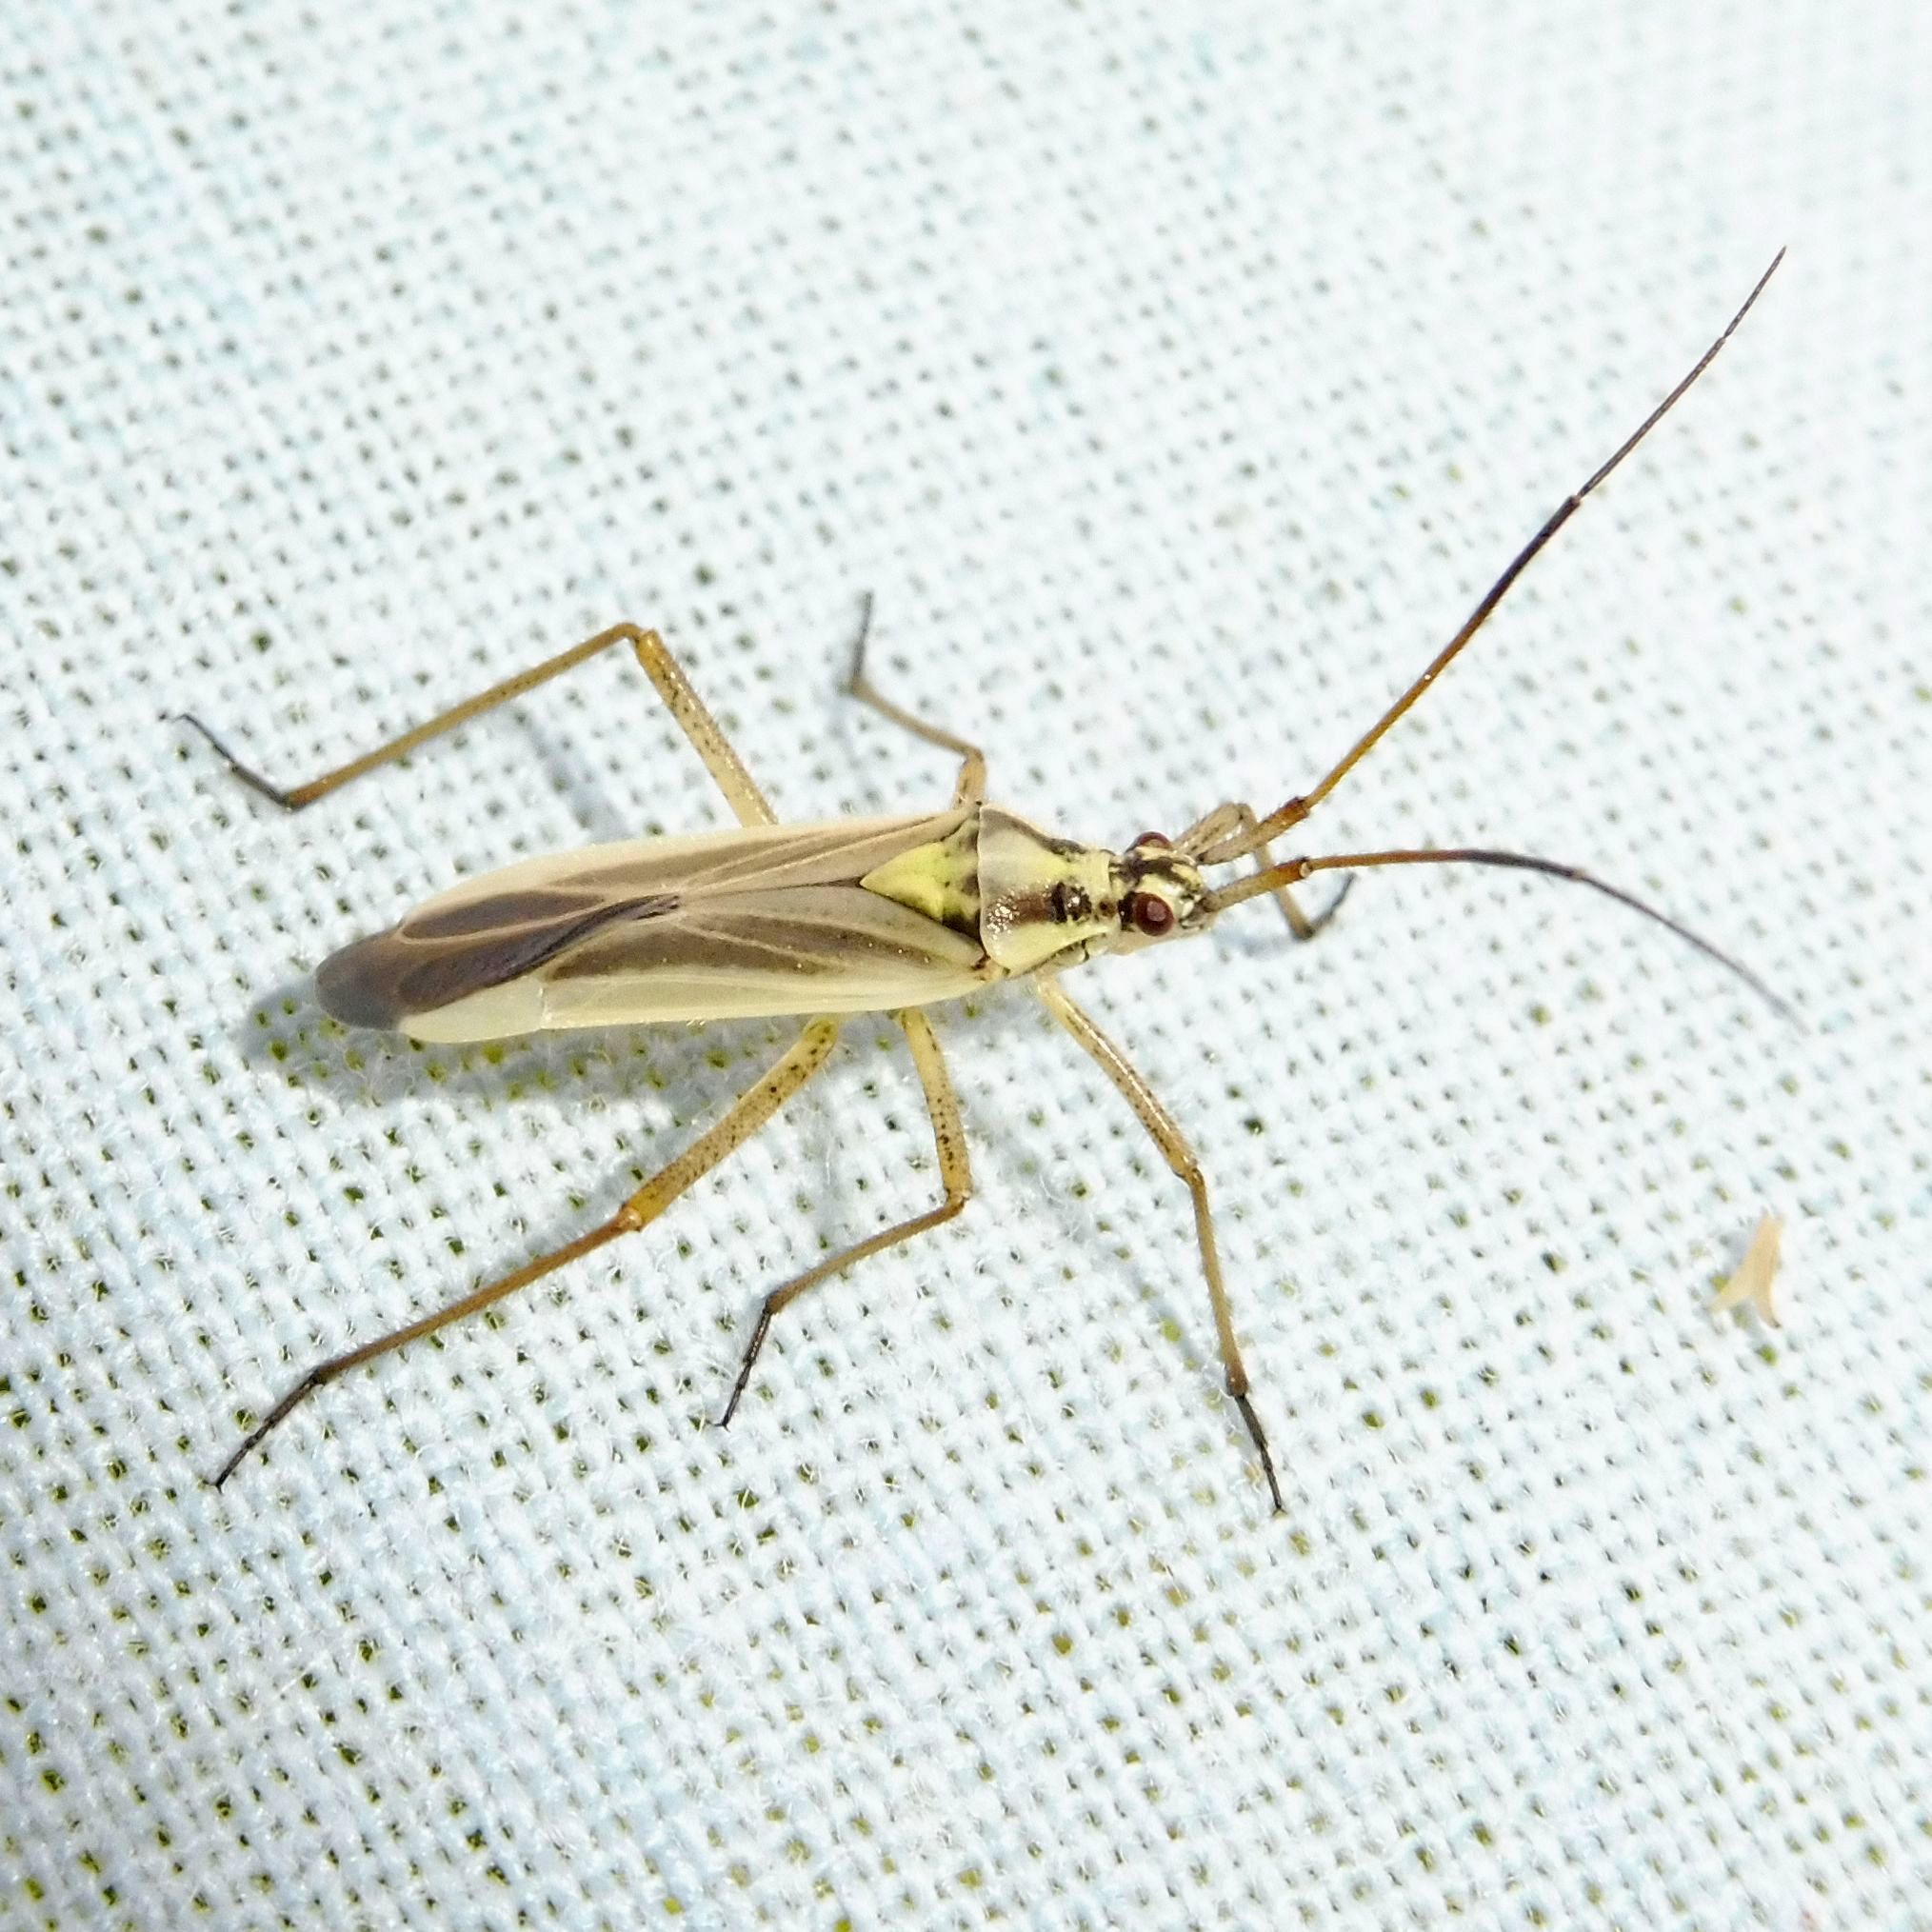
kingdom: Animalia
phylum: Arthropoda
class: Insecta
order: Hemiptera
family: Miridae
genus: Leptopterna
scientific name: Leptopterna dolabrata
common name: Meadow plant bug
